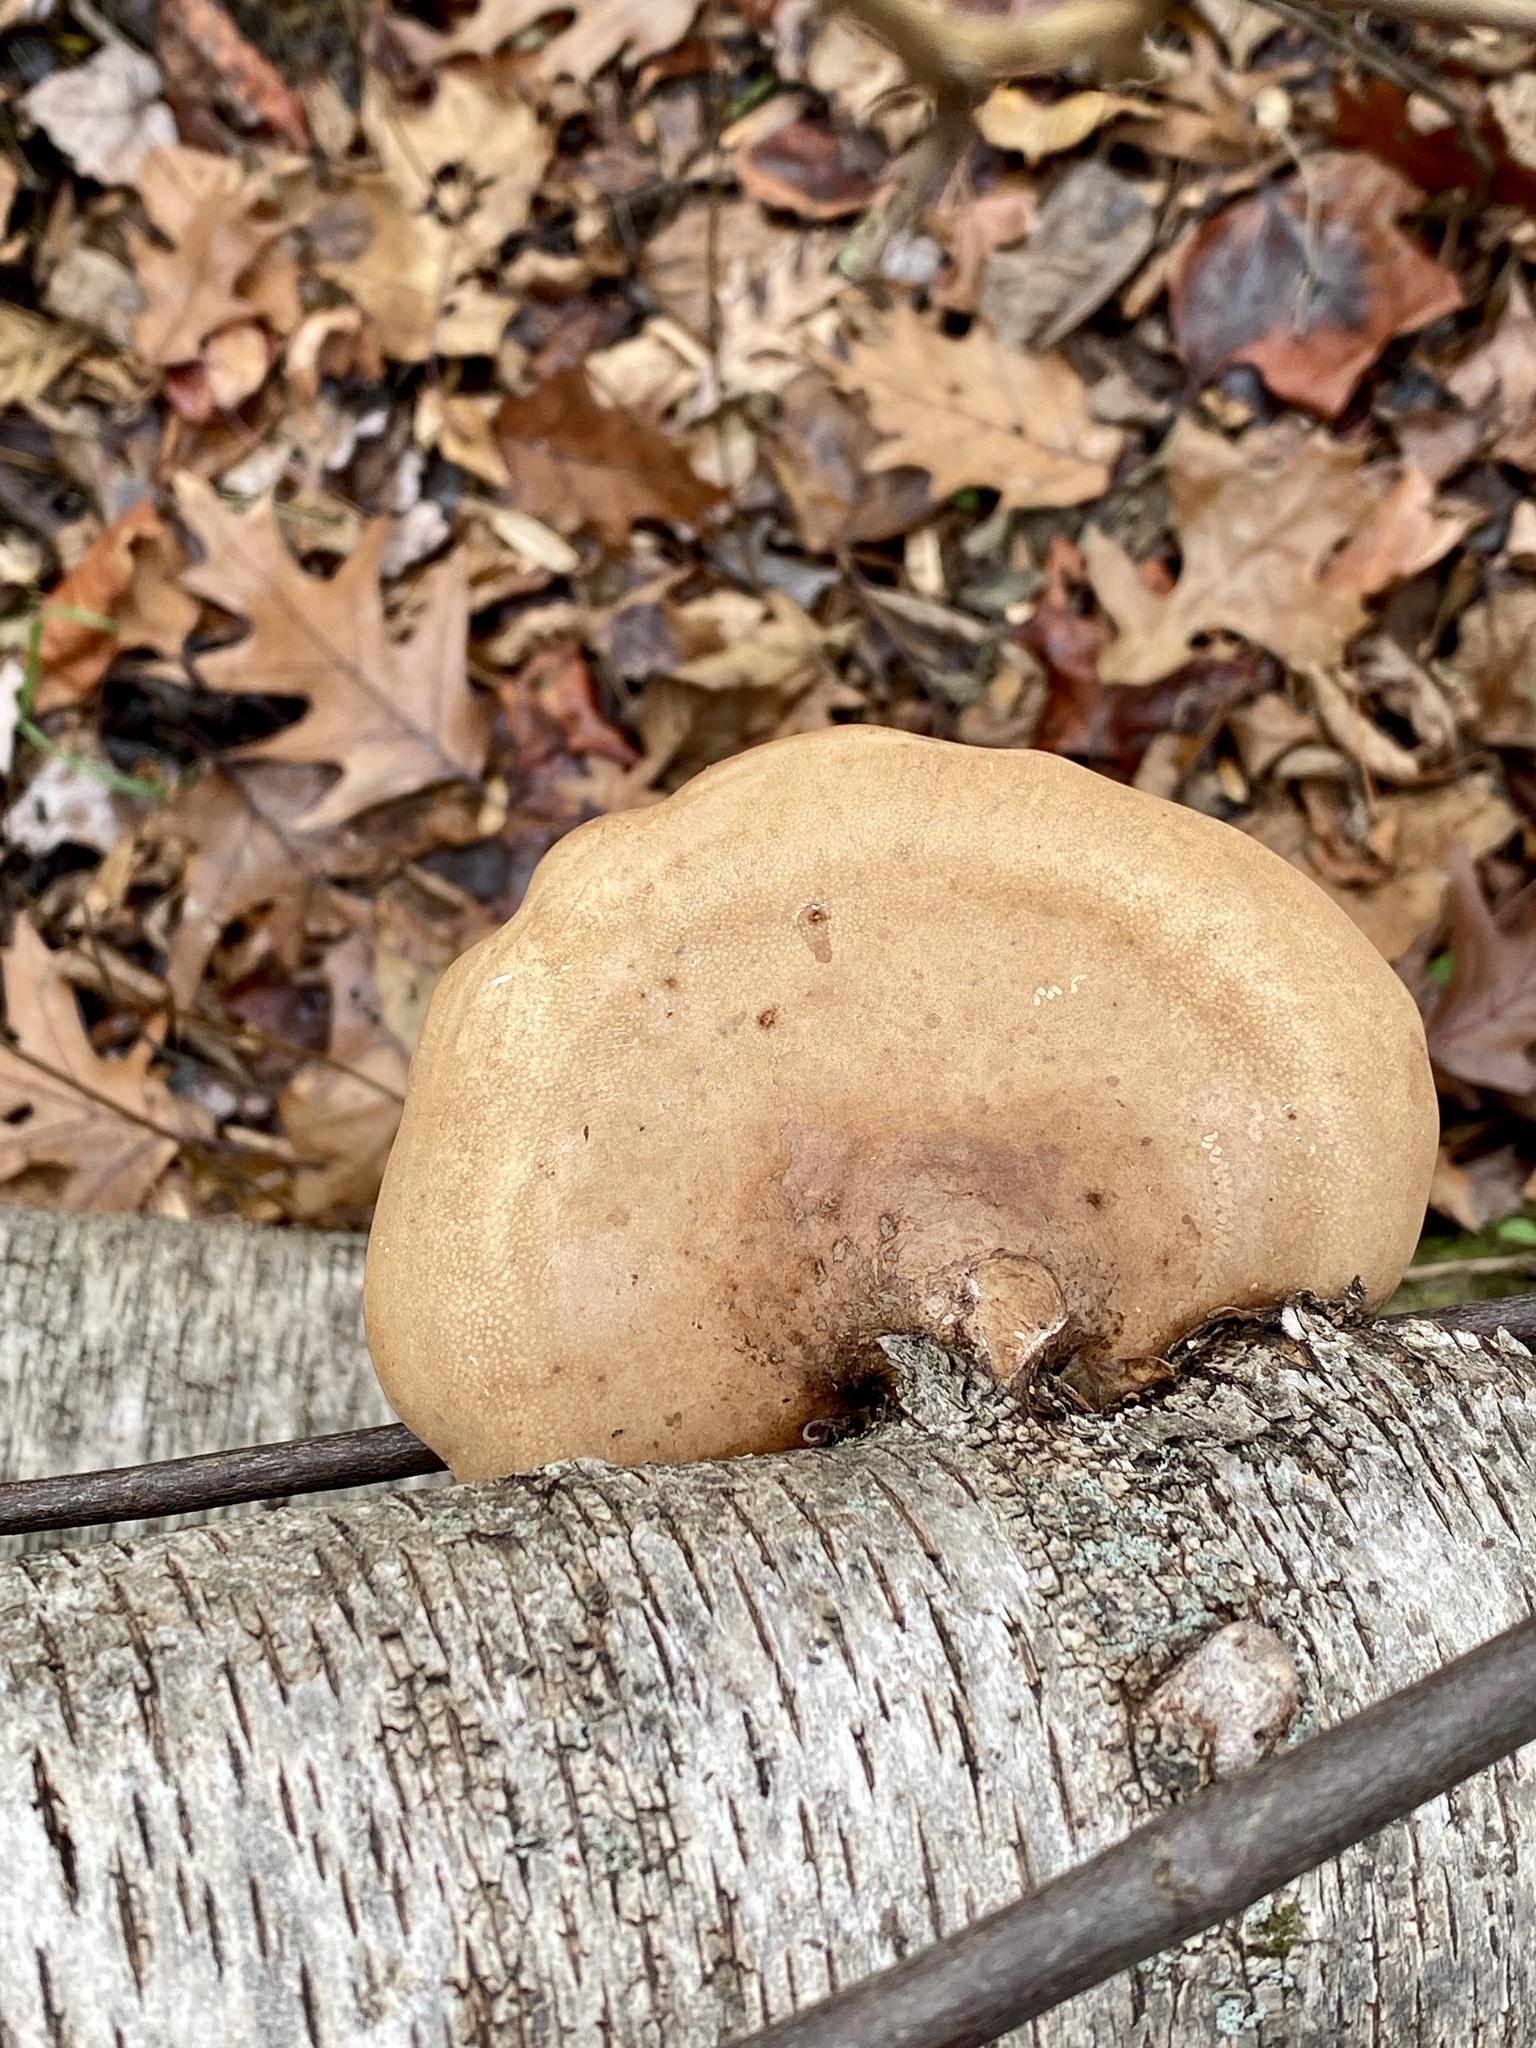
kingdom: Fungi
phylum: Basidiomycota
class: Agaricomycetes
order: Polyporales
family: Fomitopsidaceae
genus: Fomitopsis
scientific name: Fomitopsis betulina
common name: Birch polypore
